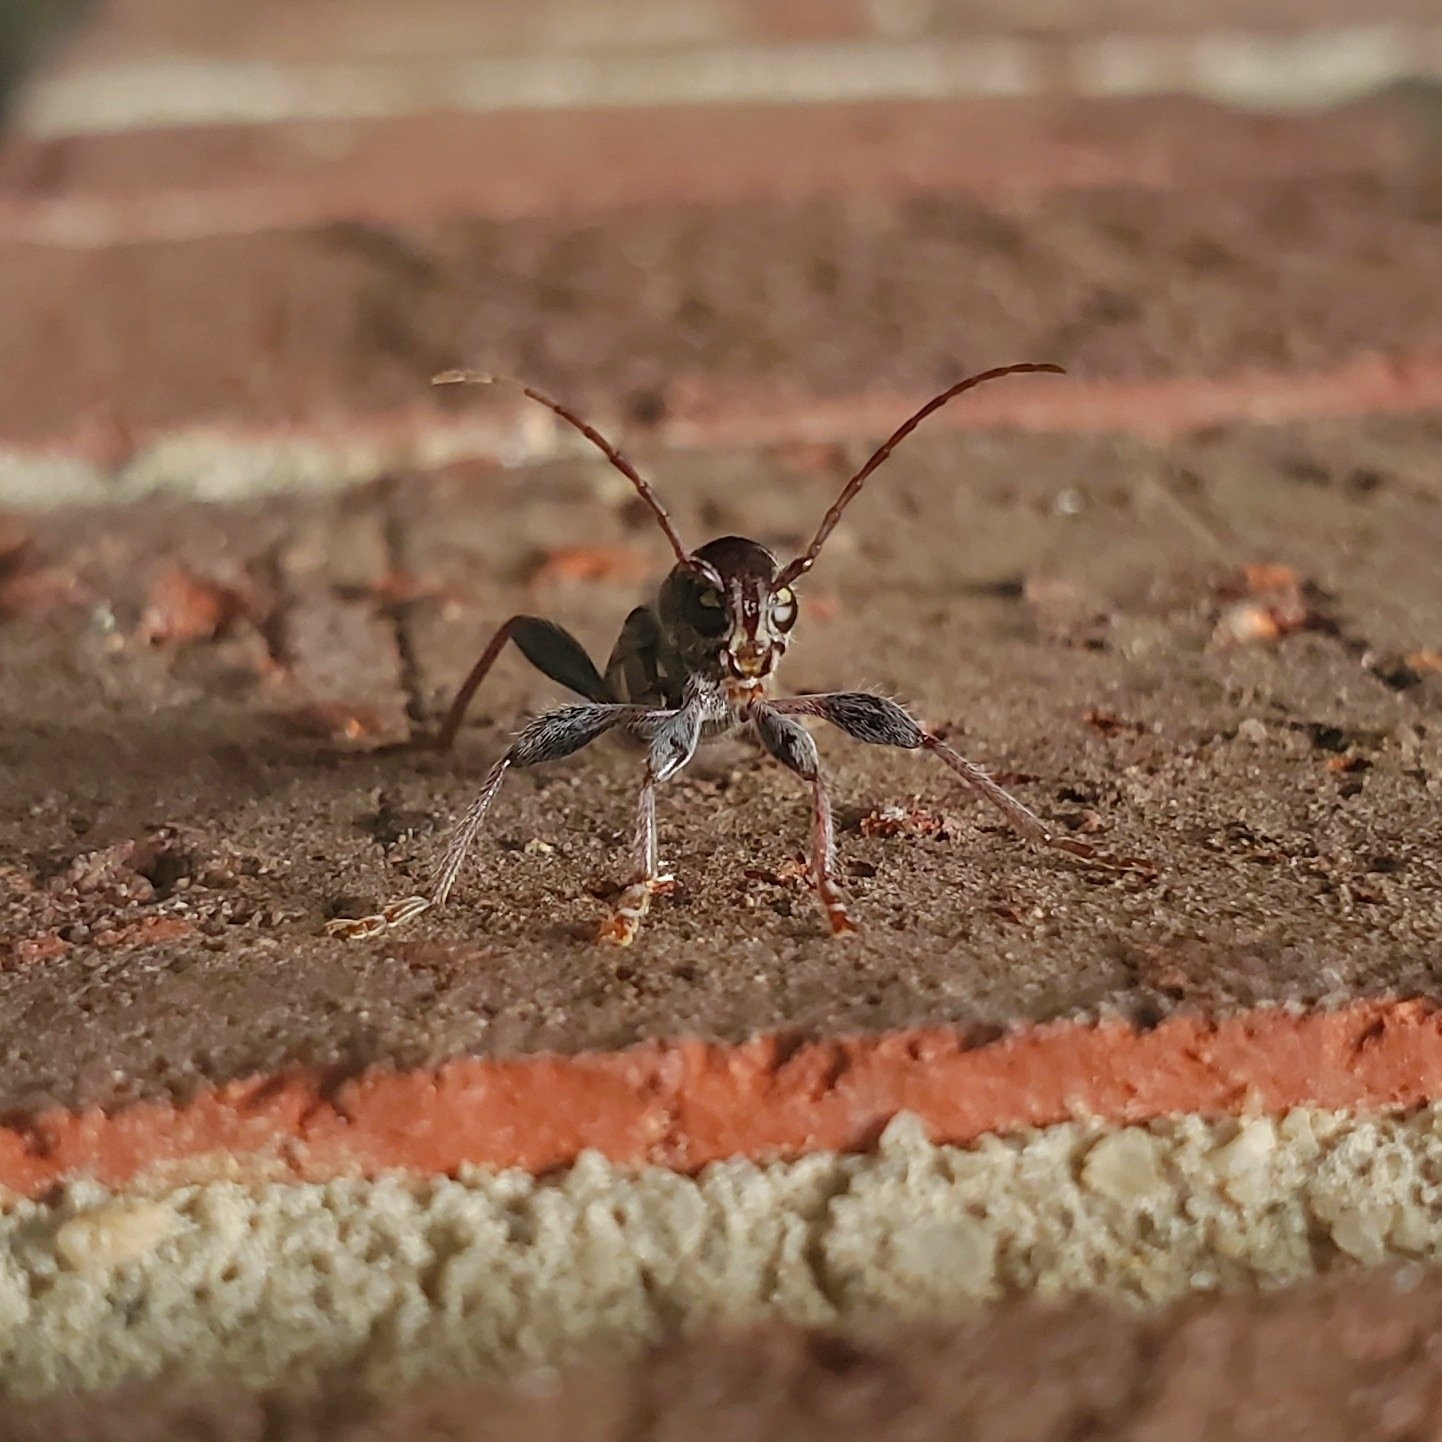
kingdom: Animalia
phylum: Arthropoda
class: Insecta
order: Coleoptera
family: Cerambycidae
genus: Xylotrechus
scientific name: Xylotrechus colonus
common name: Long-horned beetle
